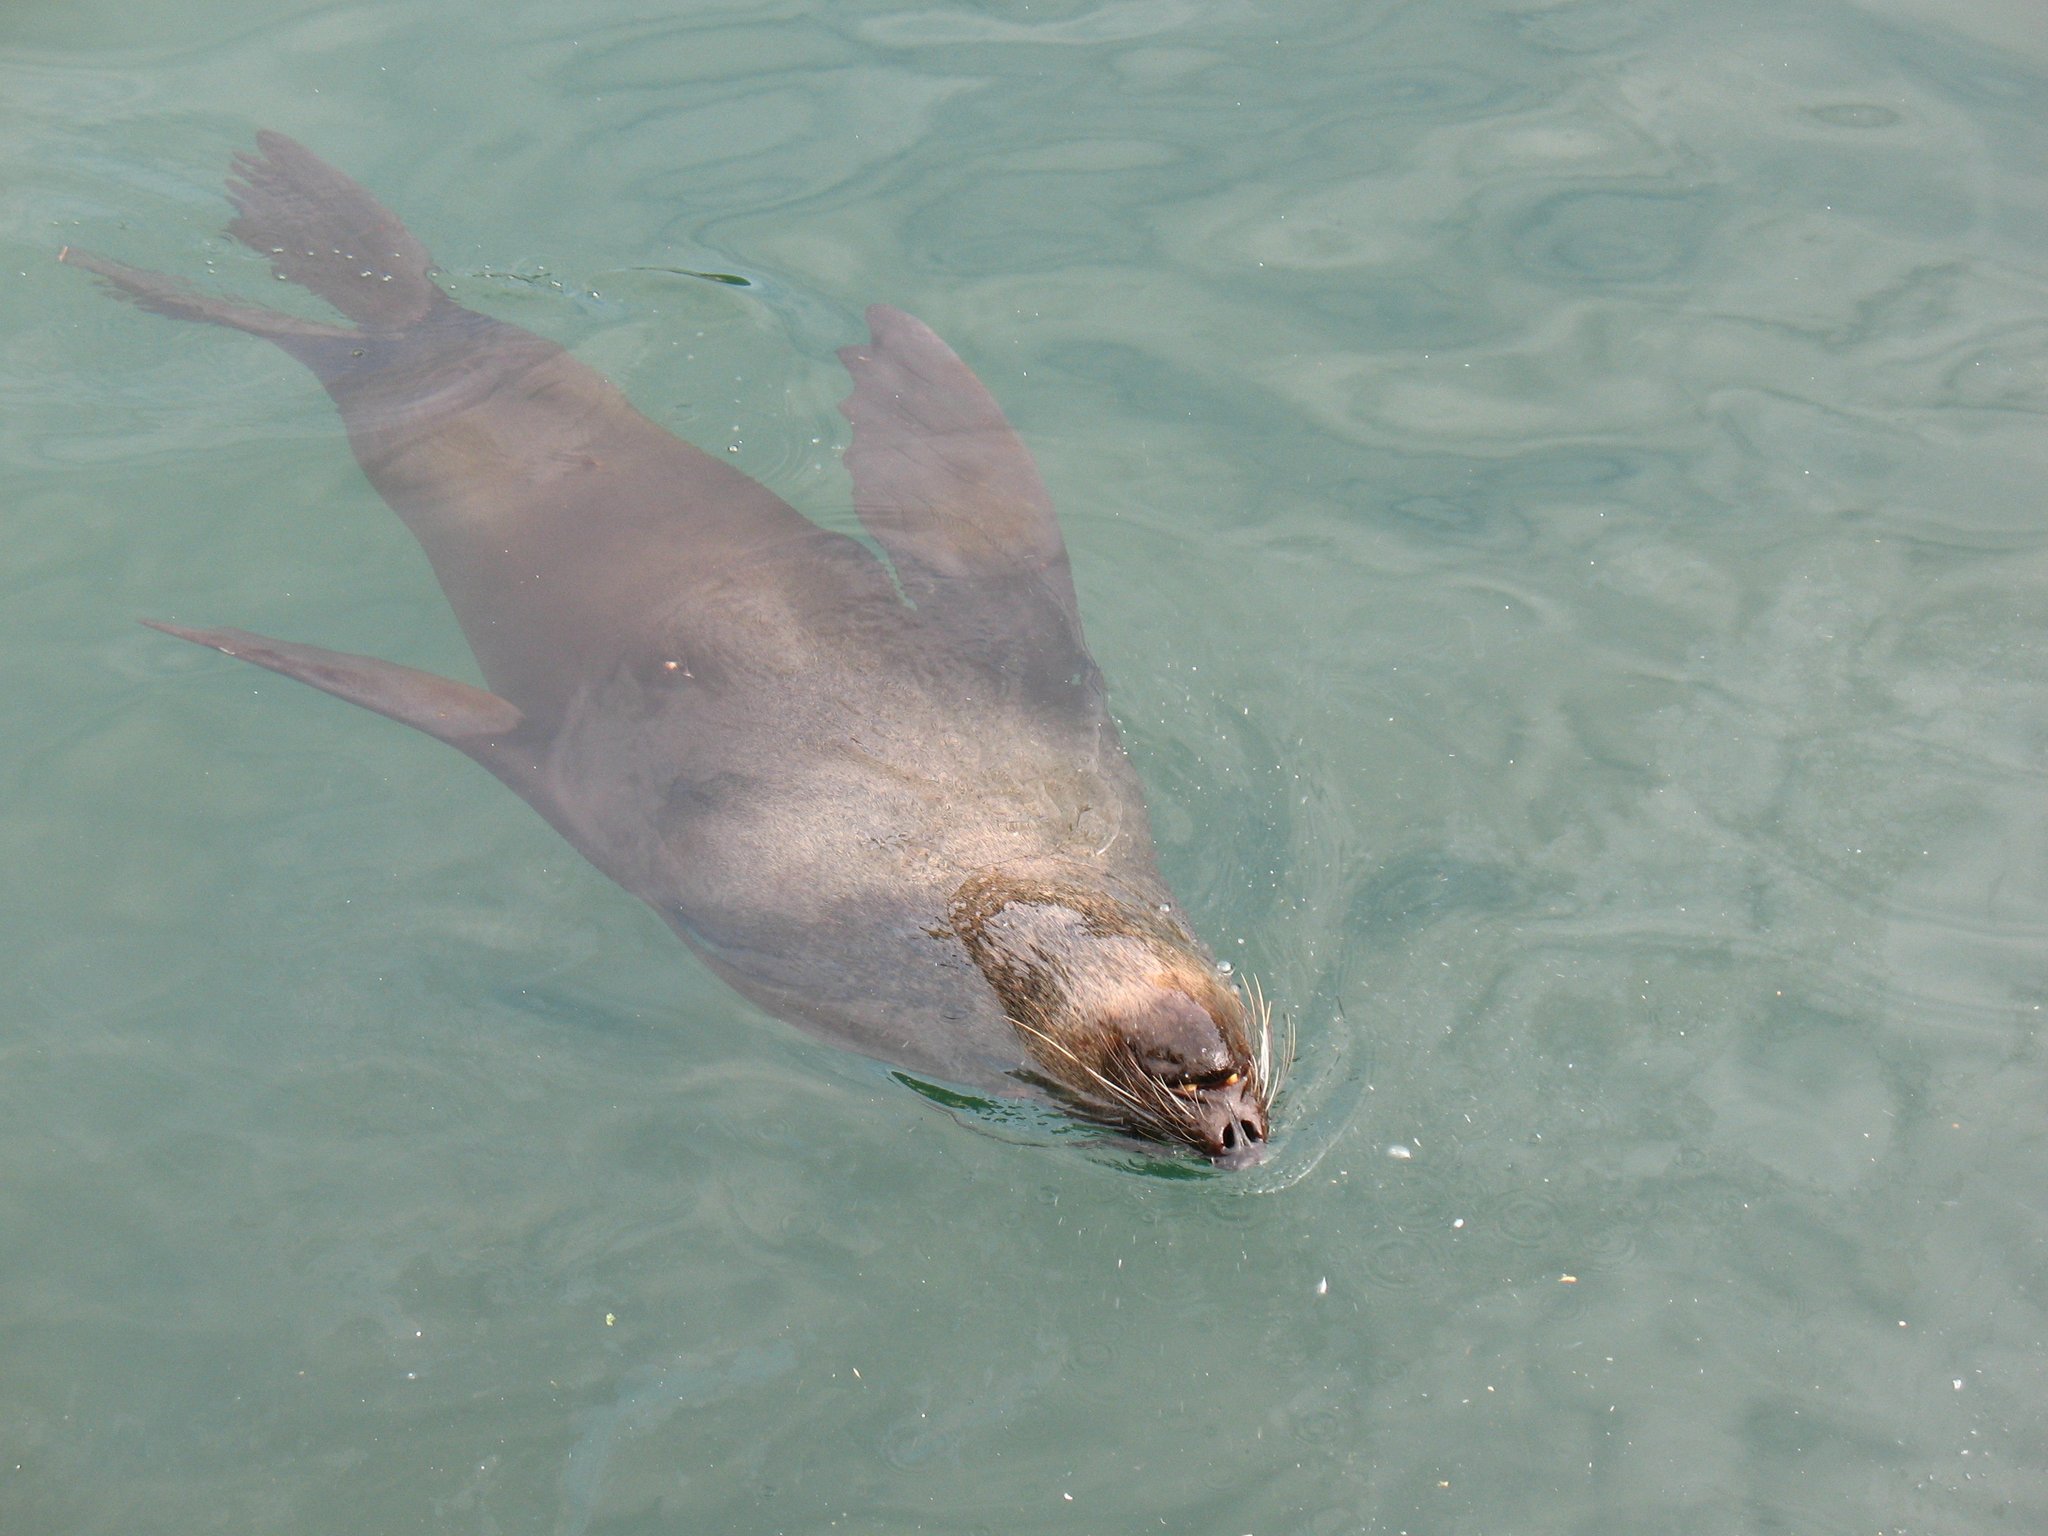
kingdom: Animalia
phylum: Chordata
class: Mammalia
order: Carnivora
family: Otariidae
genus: Arctocephalus
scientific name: Arctocephalus pusillus
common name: Brown fur seal
